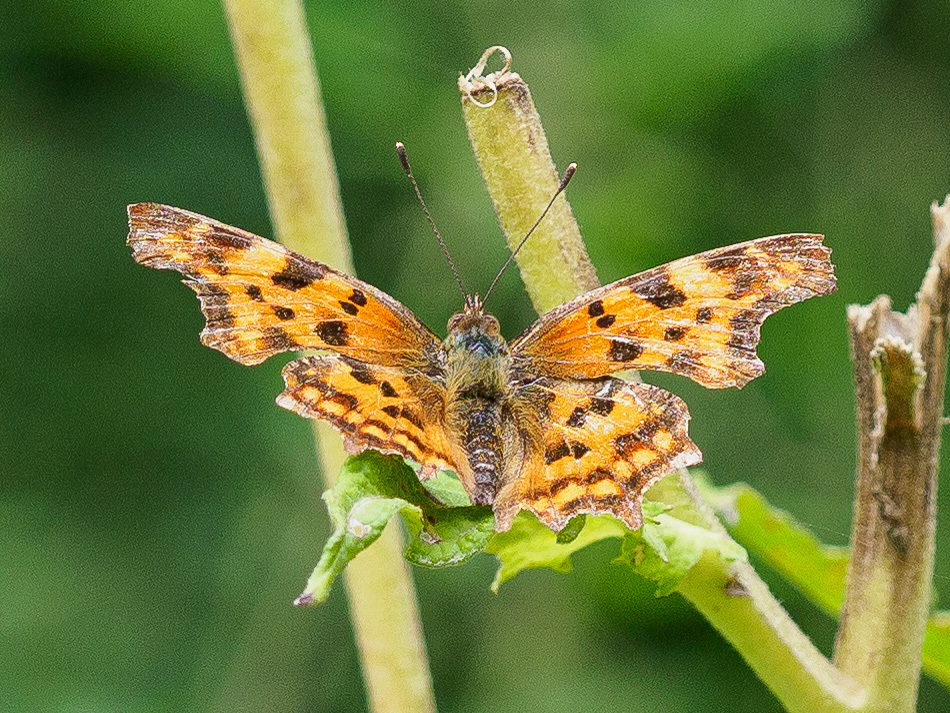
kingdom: Animalia
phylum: Arthropoda
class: Insecta
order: Lepidoptera
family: Nymphalidae
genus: Polygonia
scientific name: Polygonia c-album
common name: Comma
